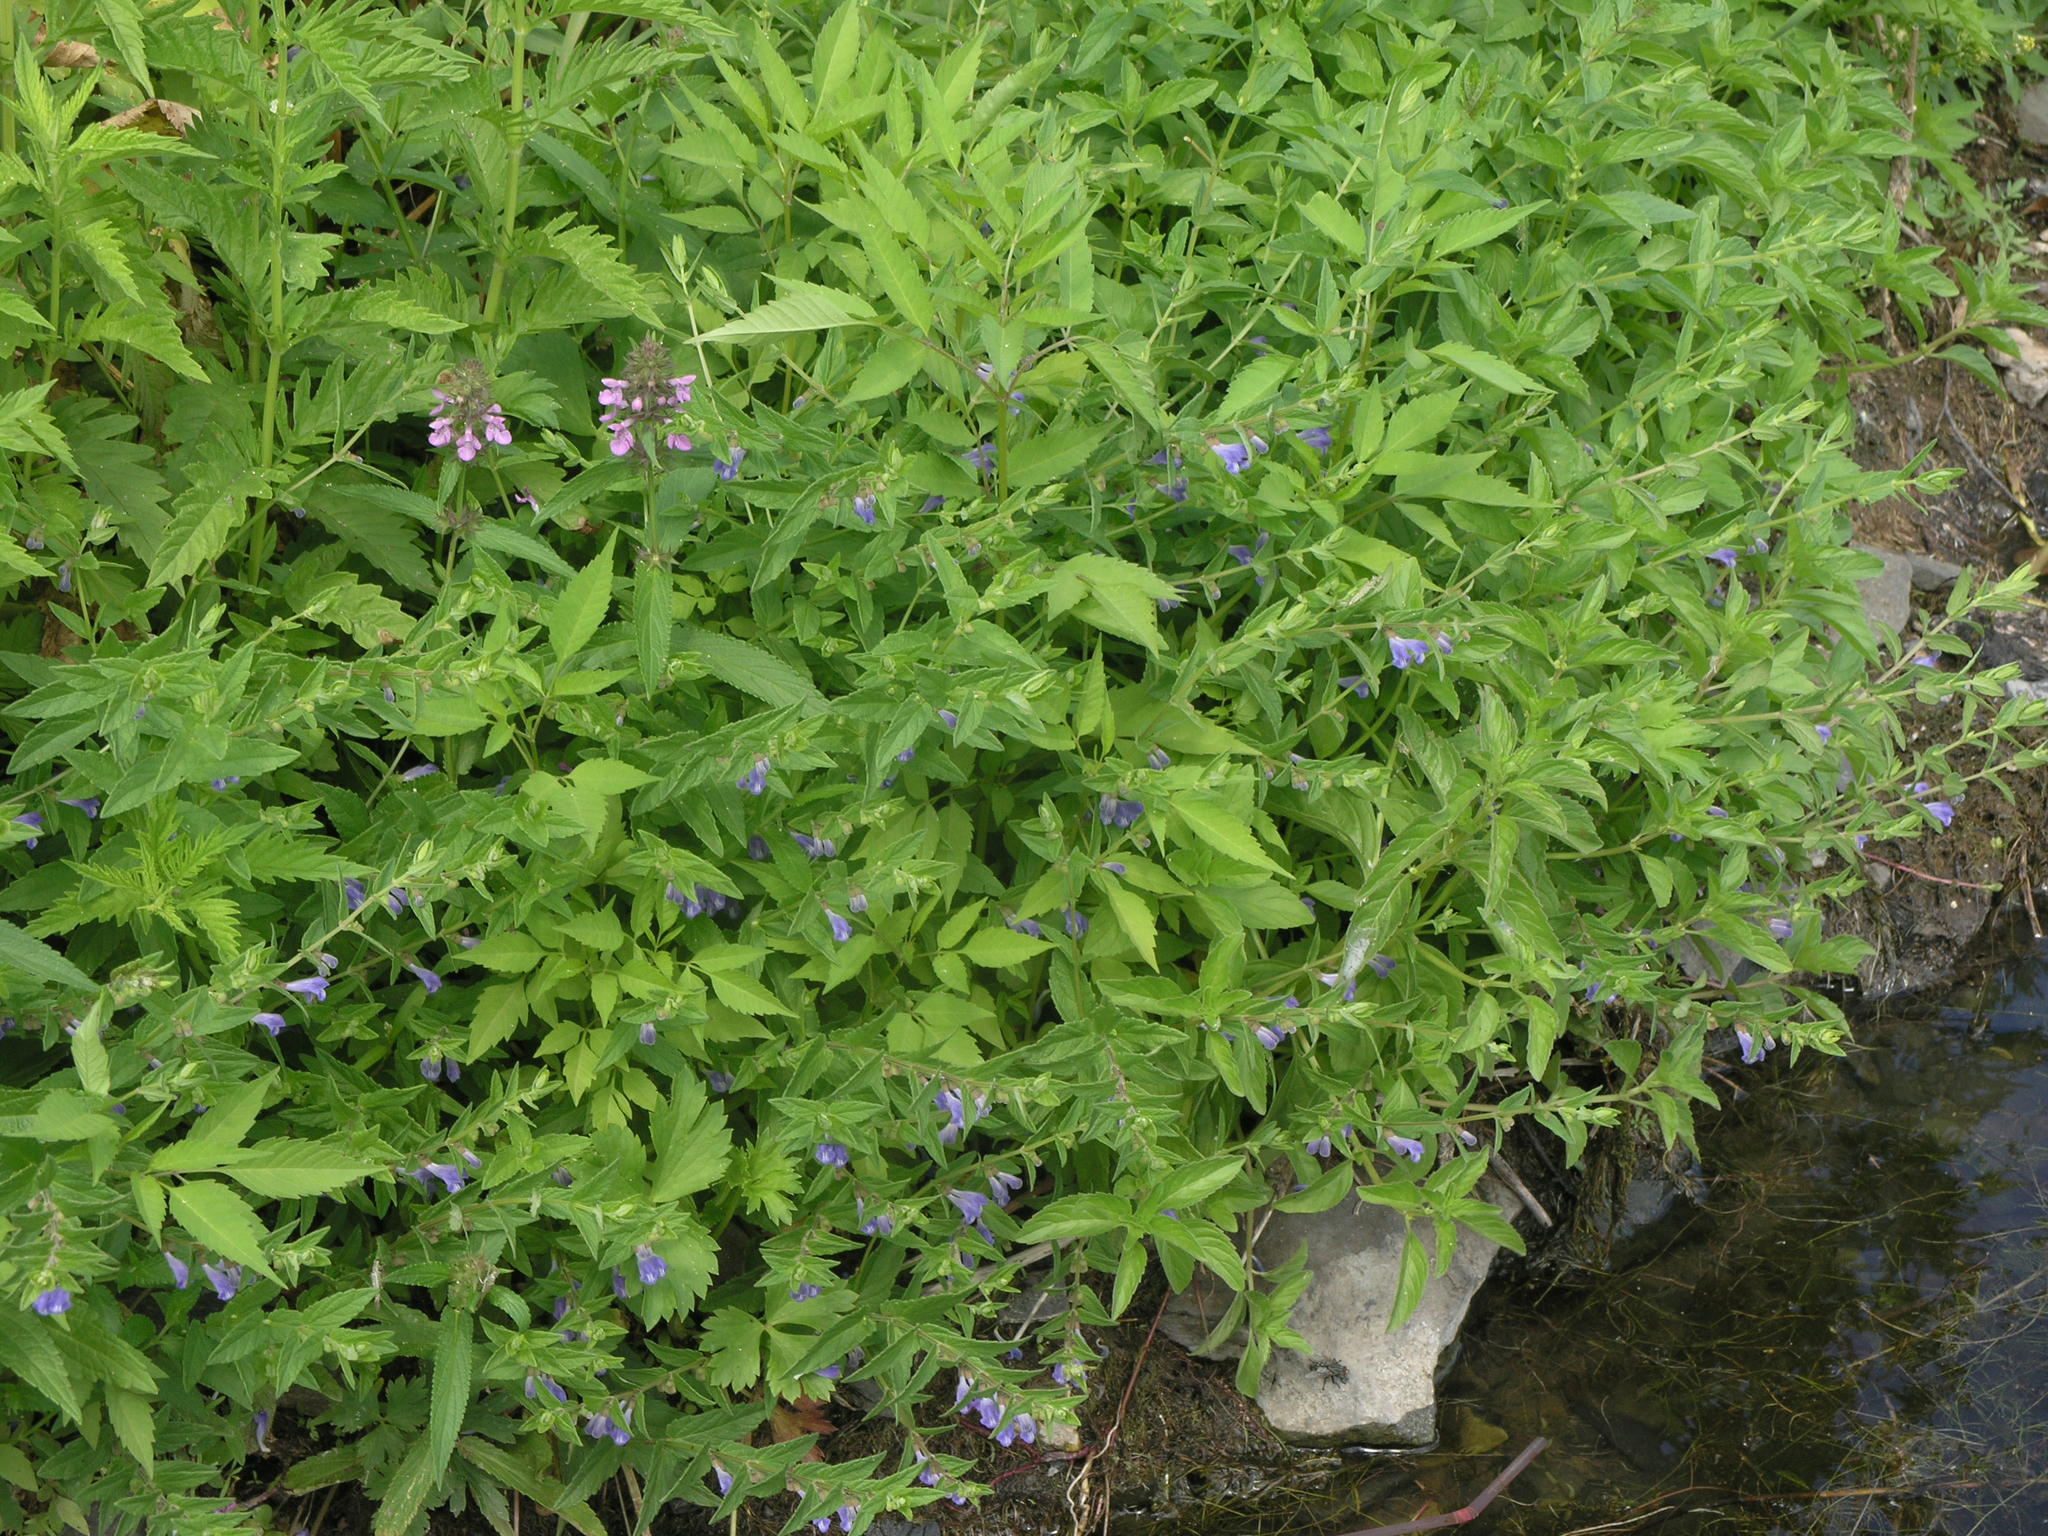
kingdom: Plantae
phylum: Tracheophyta
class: Magnoliopsida
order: Lamiales
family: Lamiaceae
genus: Scutellaria
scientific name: Scutellaria galericulata
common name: Skullcap
